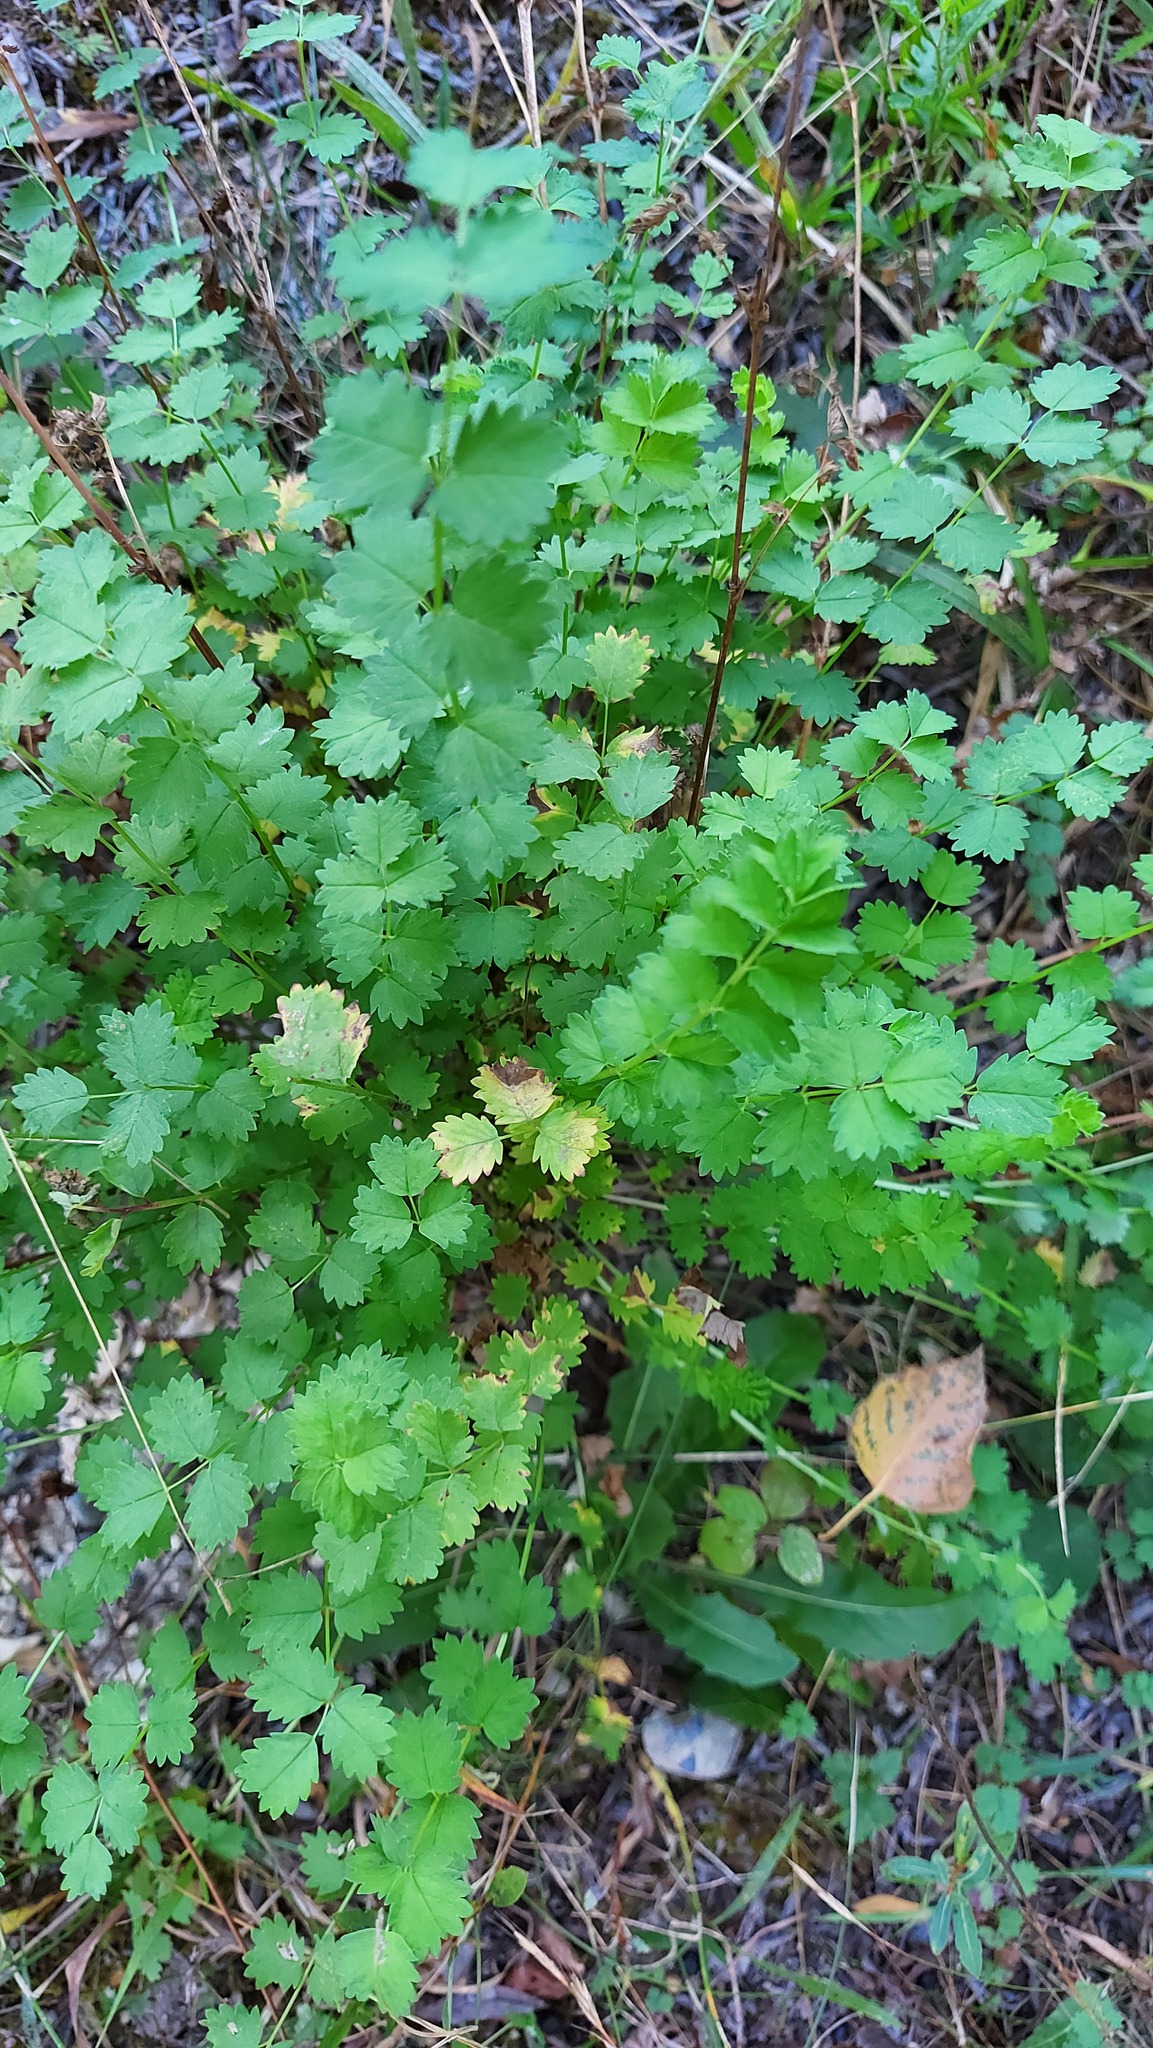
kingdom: Plantae
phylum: Tracheophyta
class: Magnoliopsida
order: Rosales
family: Rosaceae
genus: Poterium
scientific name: Poterium sanguisorba
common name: Salad burnet
